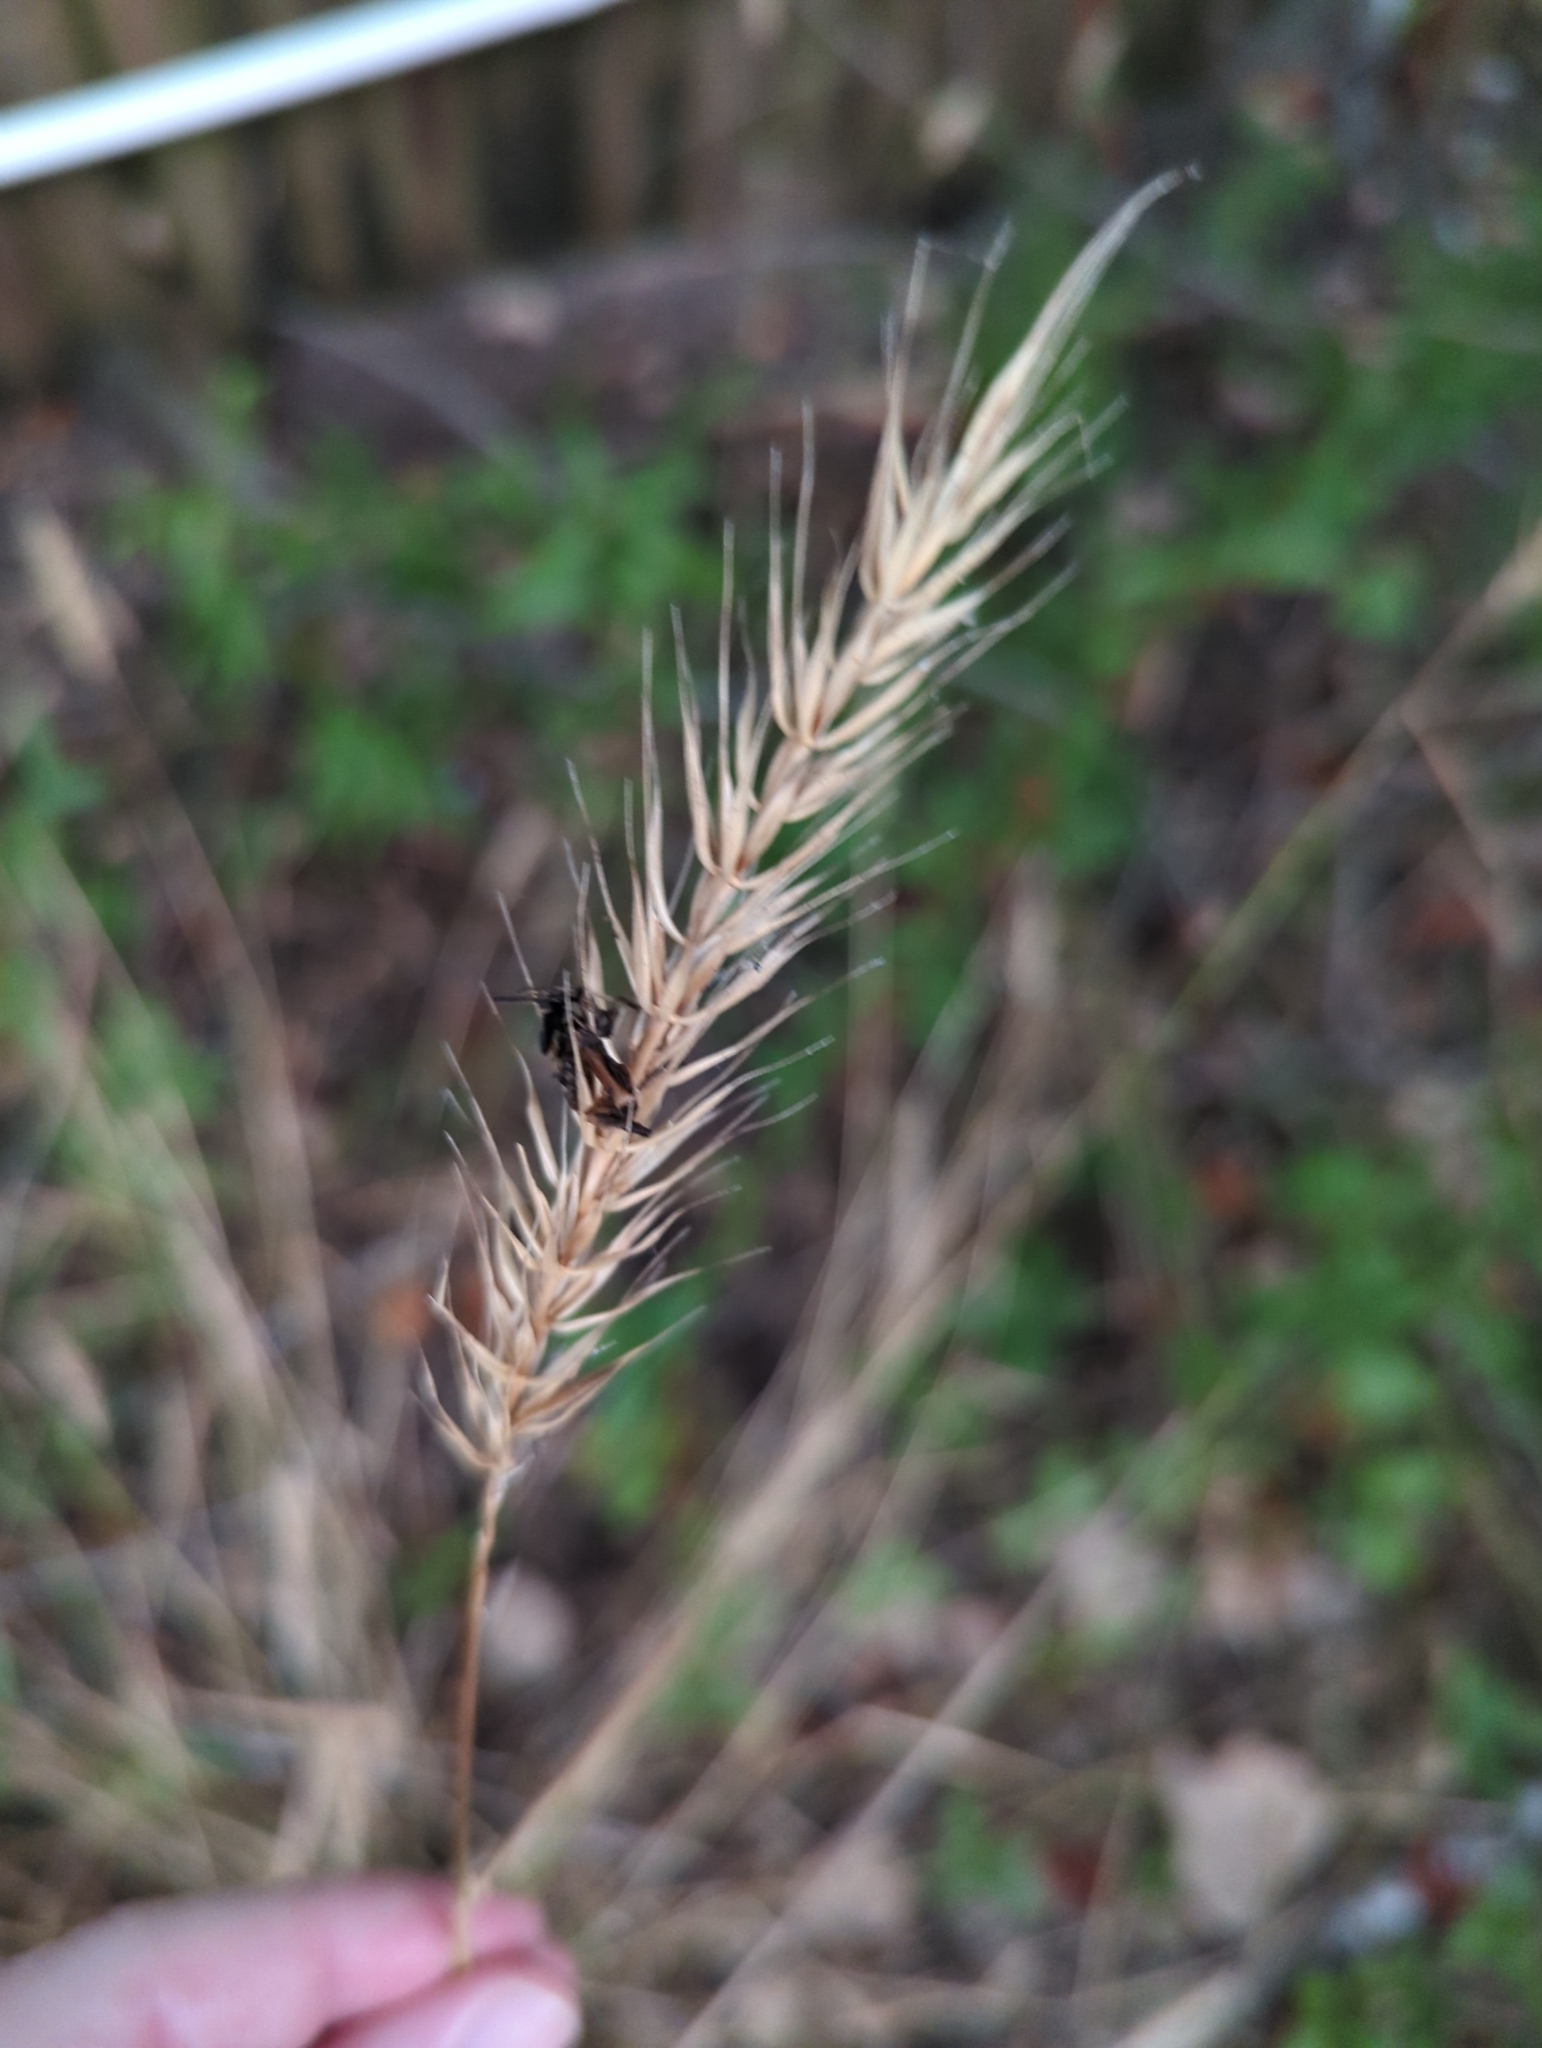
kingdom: Plantae
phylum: Tracheophyta
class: Liliopsida
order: Poales
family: Poaceae
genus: Elymus
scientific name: Elymus virginicus
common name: Common eastern wildrye
